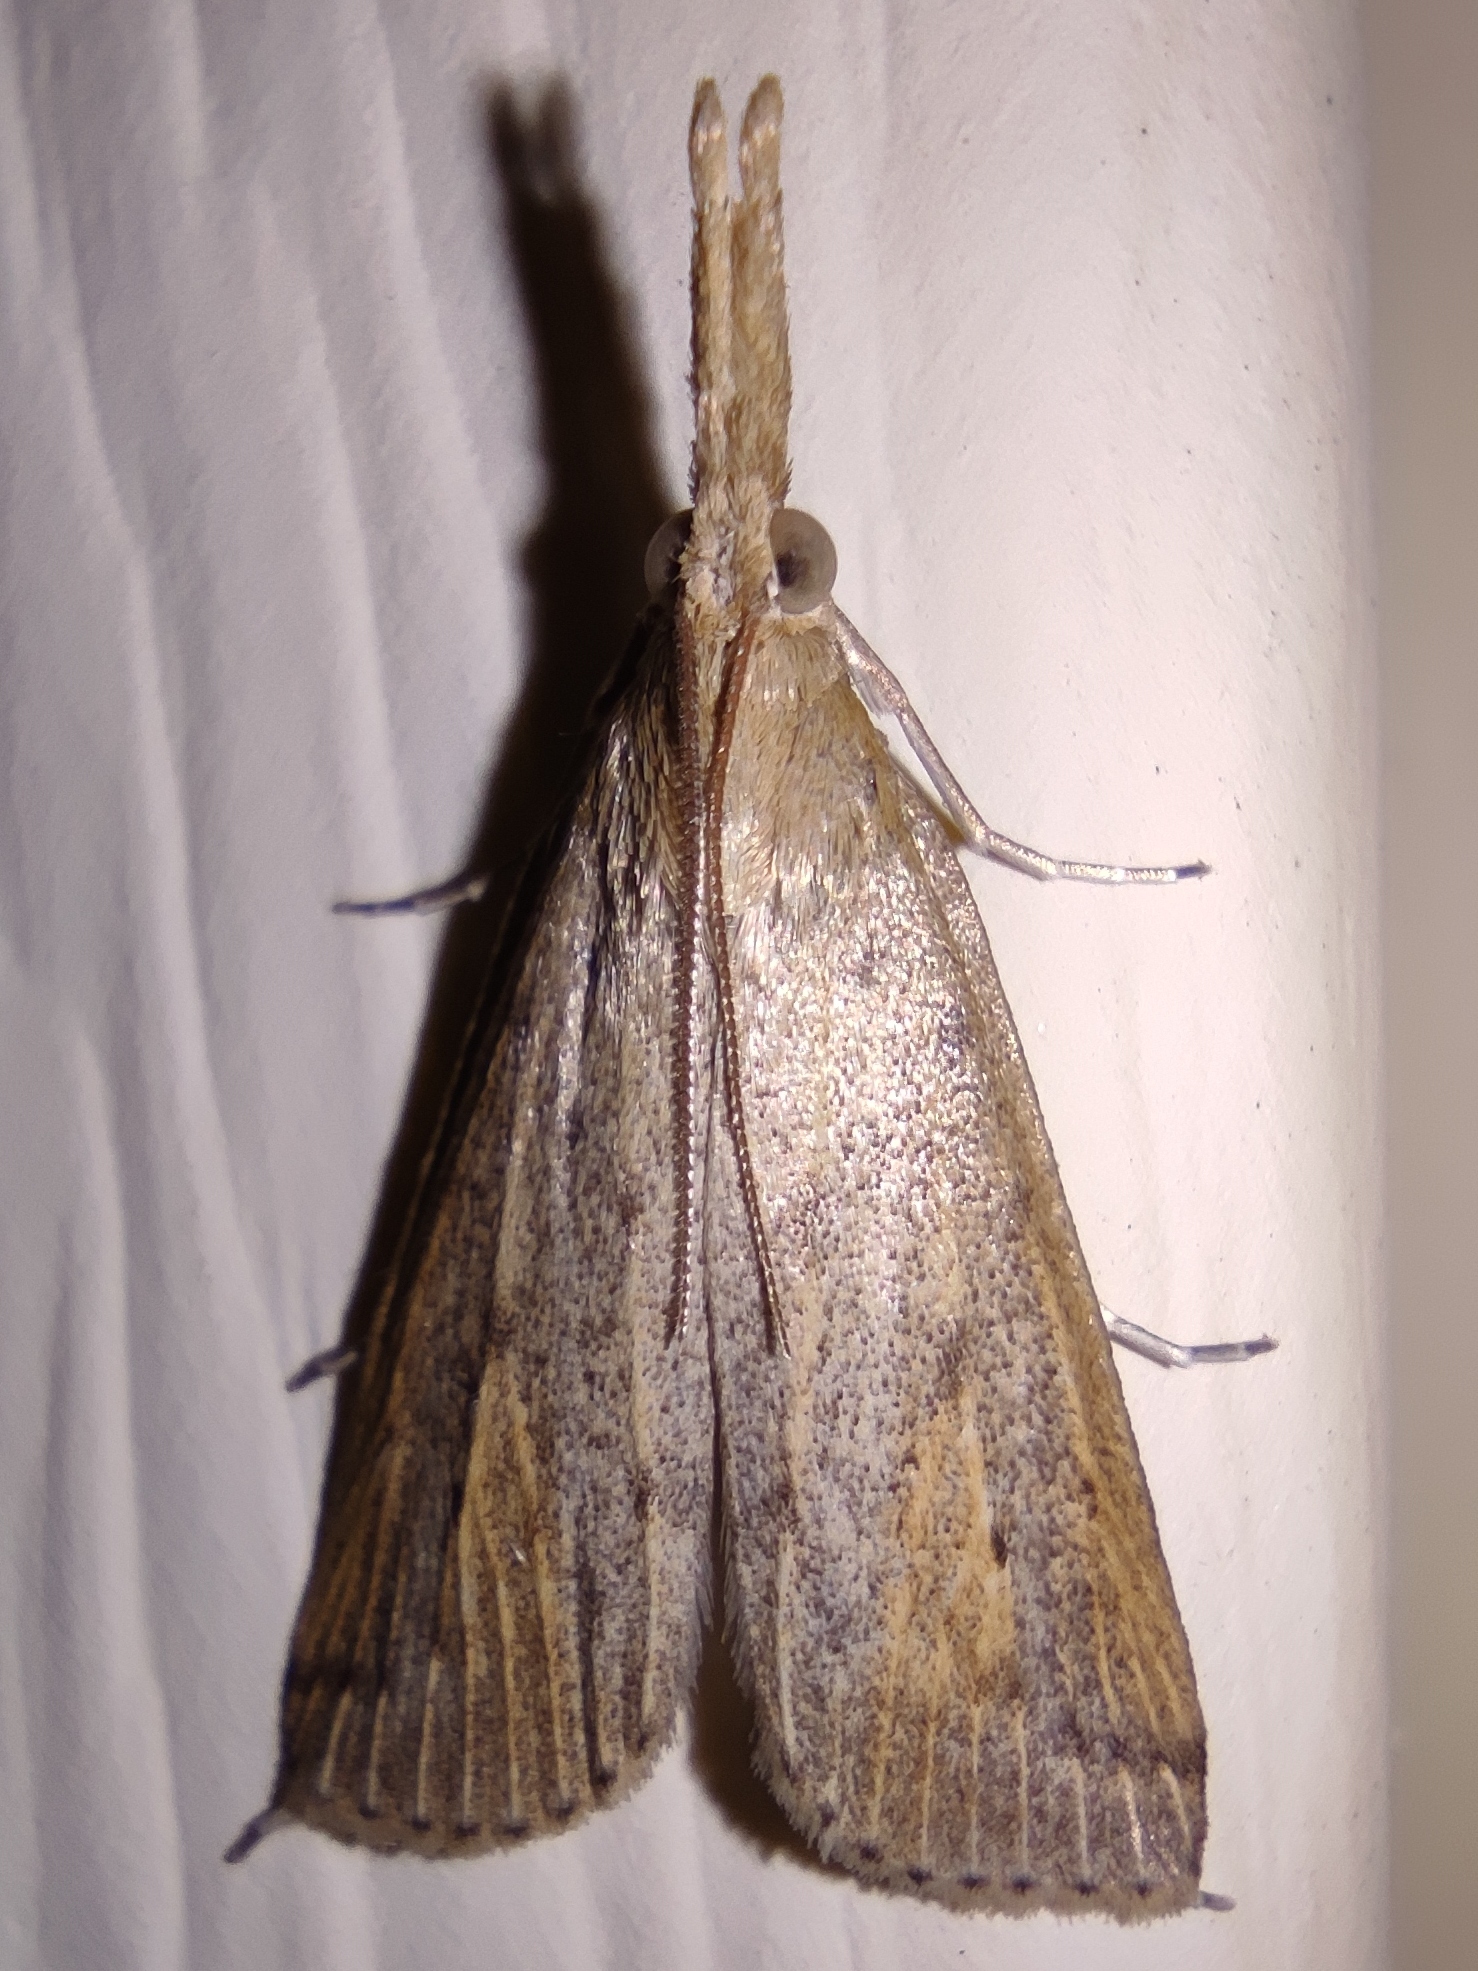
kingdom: Animalia
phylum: Arthropoda
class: Insecta
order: Lepidoptera
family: Crambidae
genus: Schoenobius
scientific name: Schoenobius gigantella
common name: Giant water-veneer
